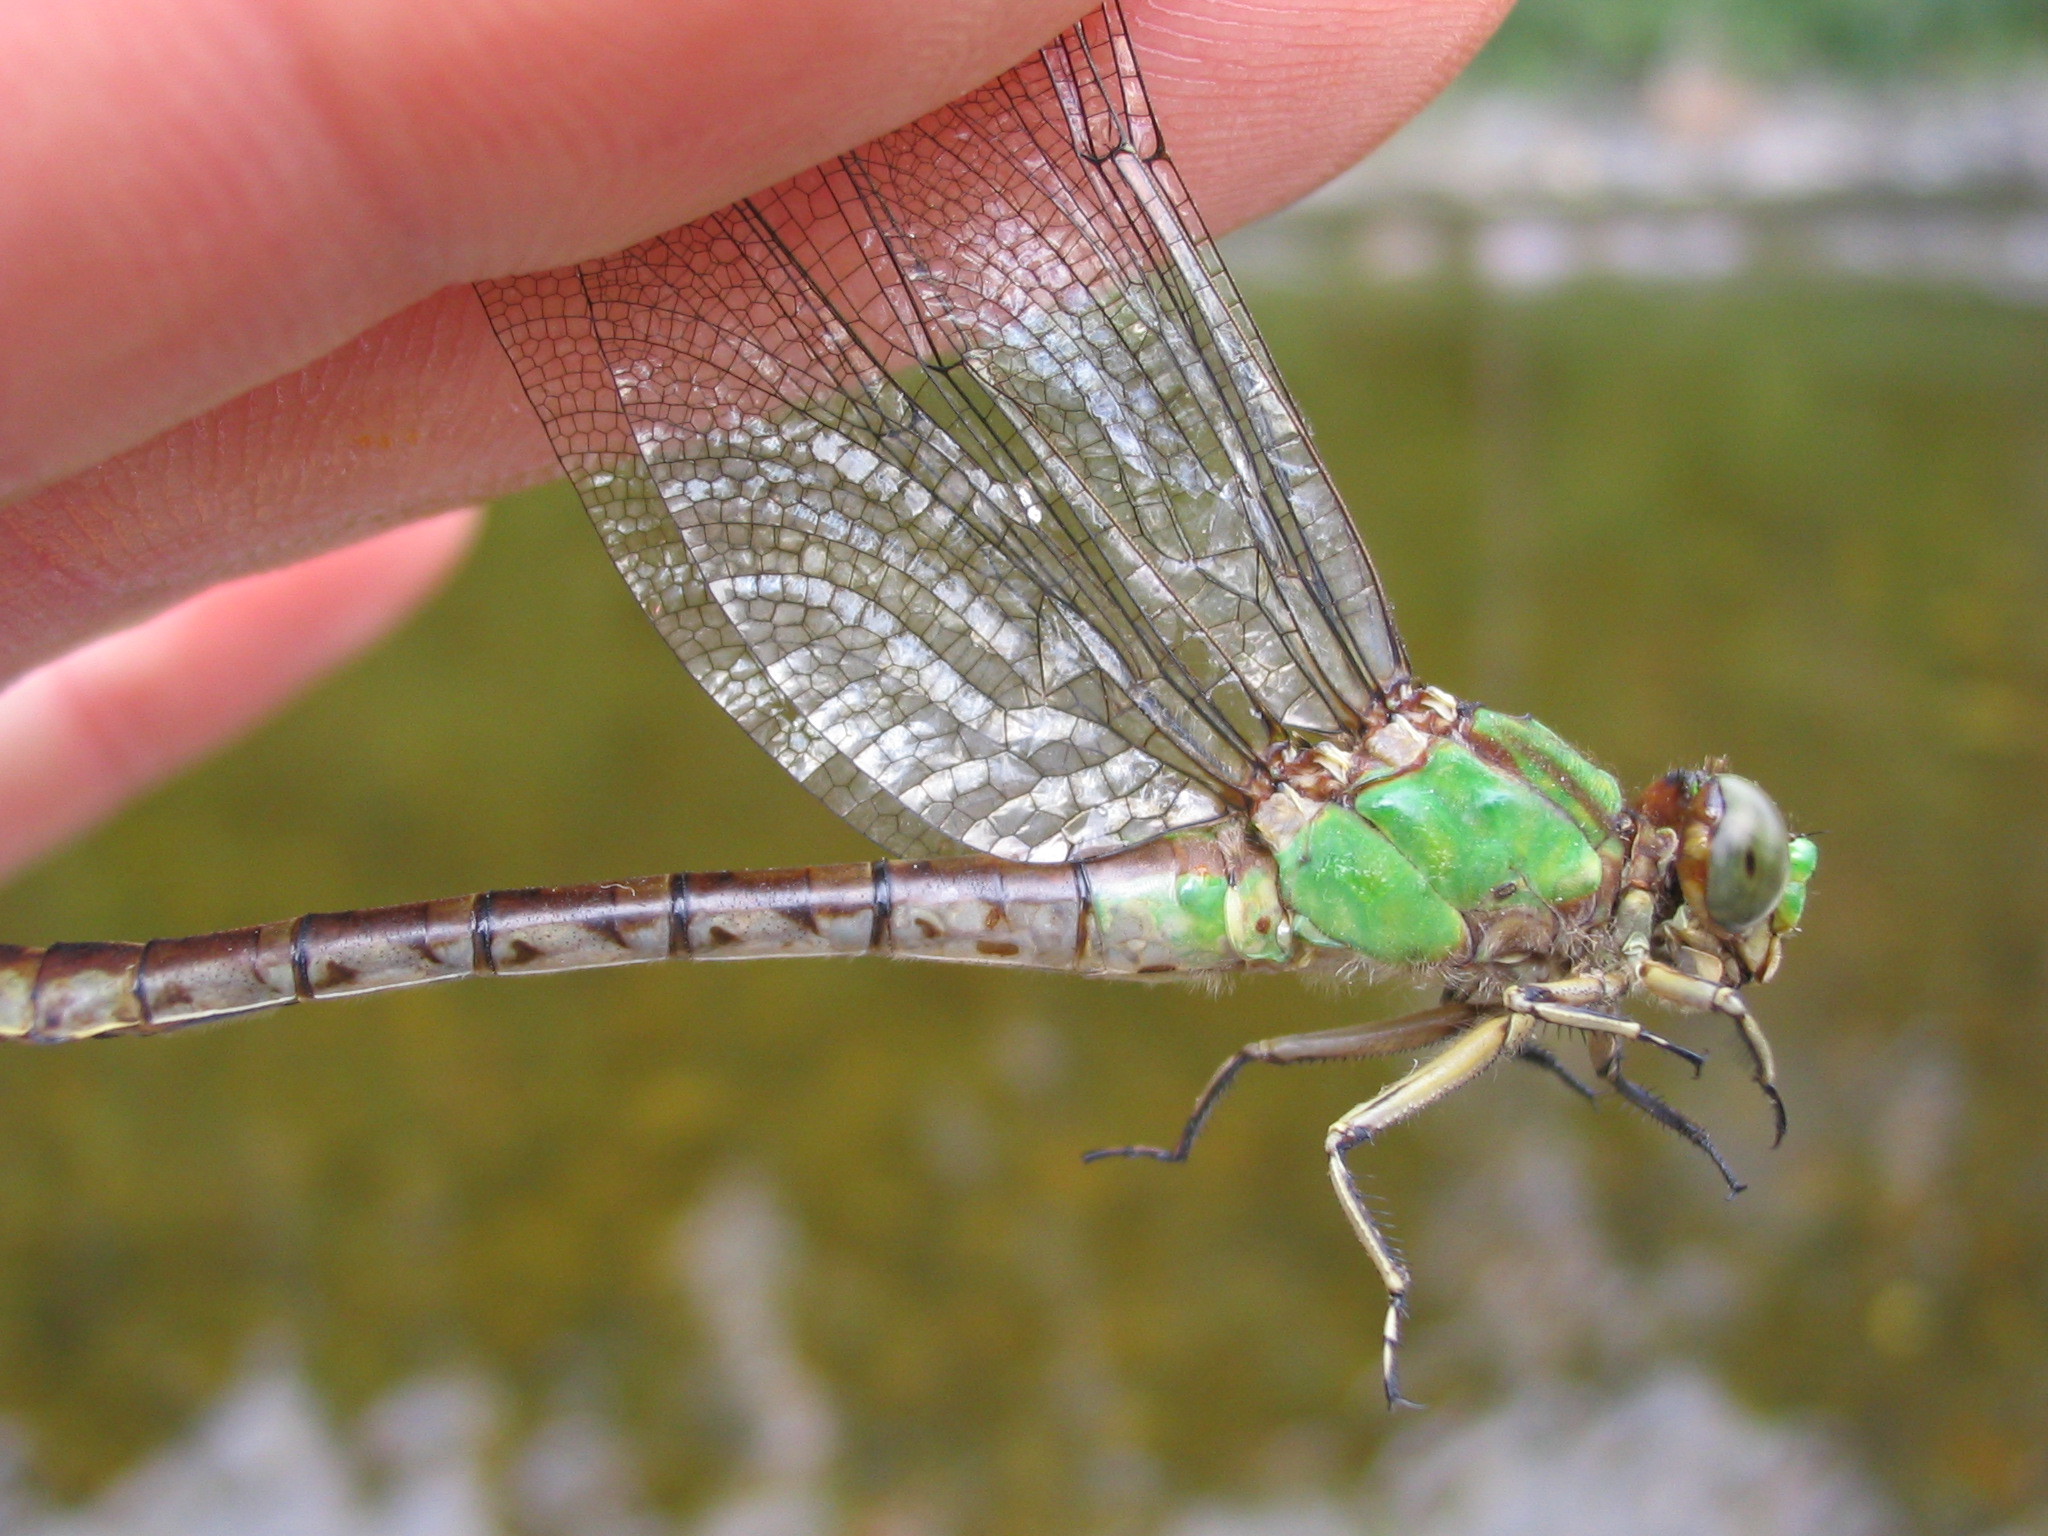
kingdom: Animalia
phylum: Arthropoda
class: Insecta
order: Odonata
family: Gomphidae
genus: Ophiogomphus
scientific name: Ophiogomphus rupinsulensis
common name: Rusty snaketail
